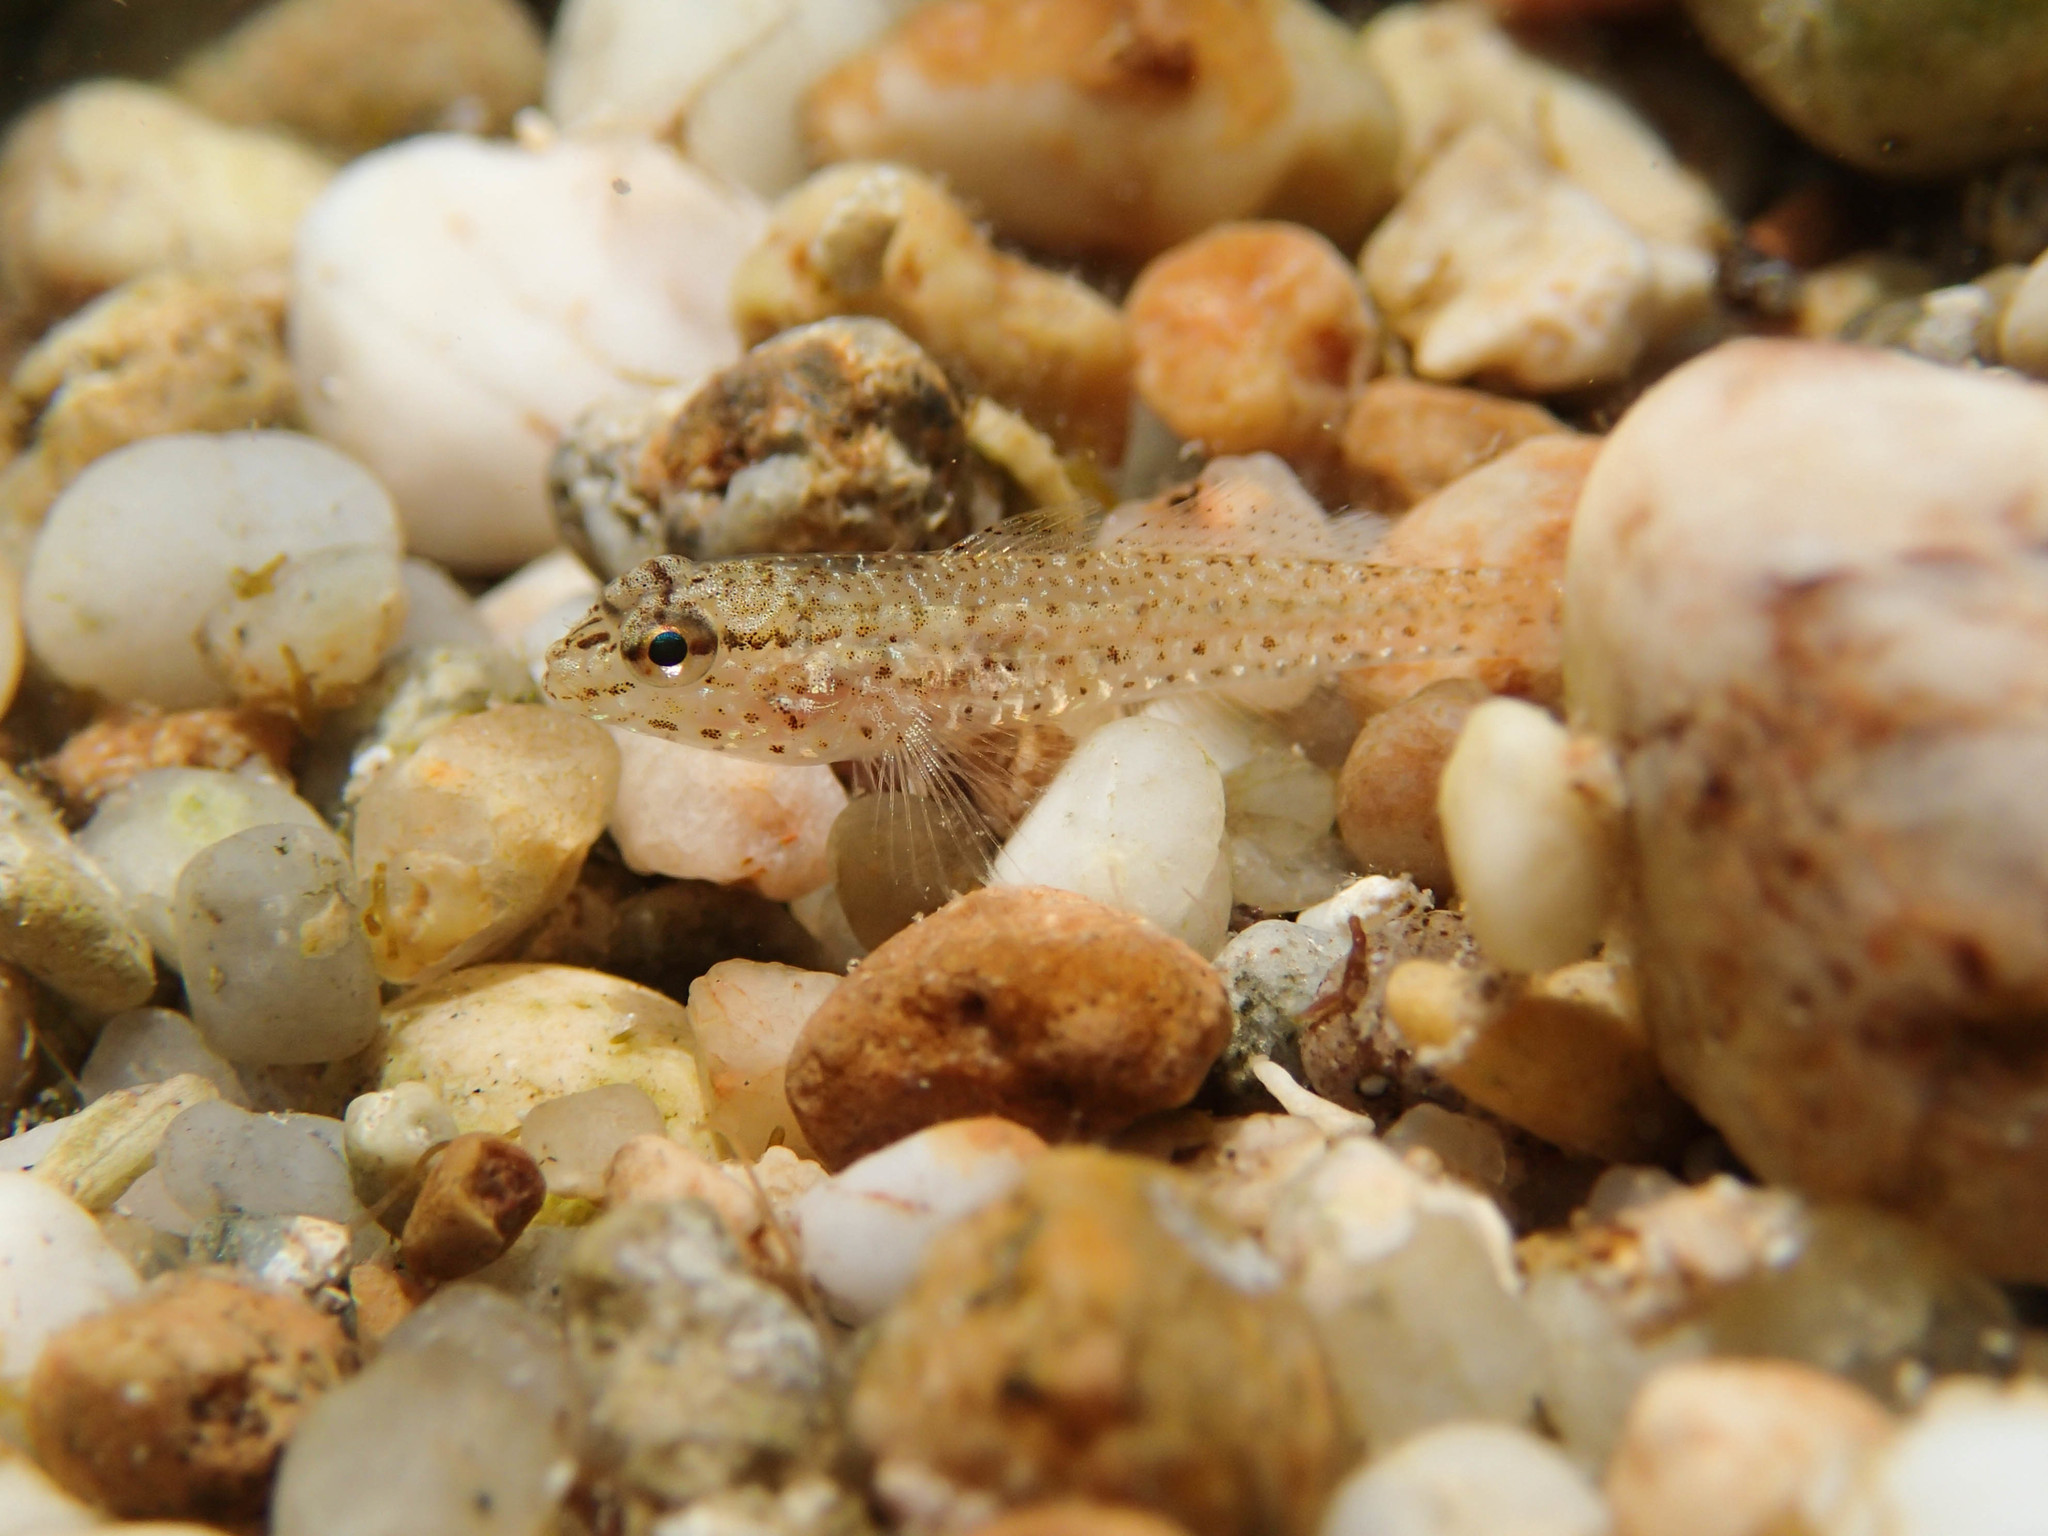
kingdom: Animalia
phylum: Chordata
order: Perciformes
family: Gobiidae
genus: Gobius
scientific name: Gobius incognitus
